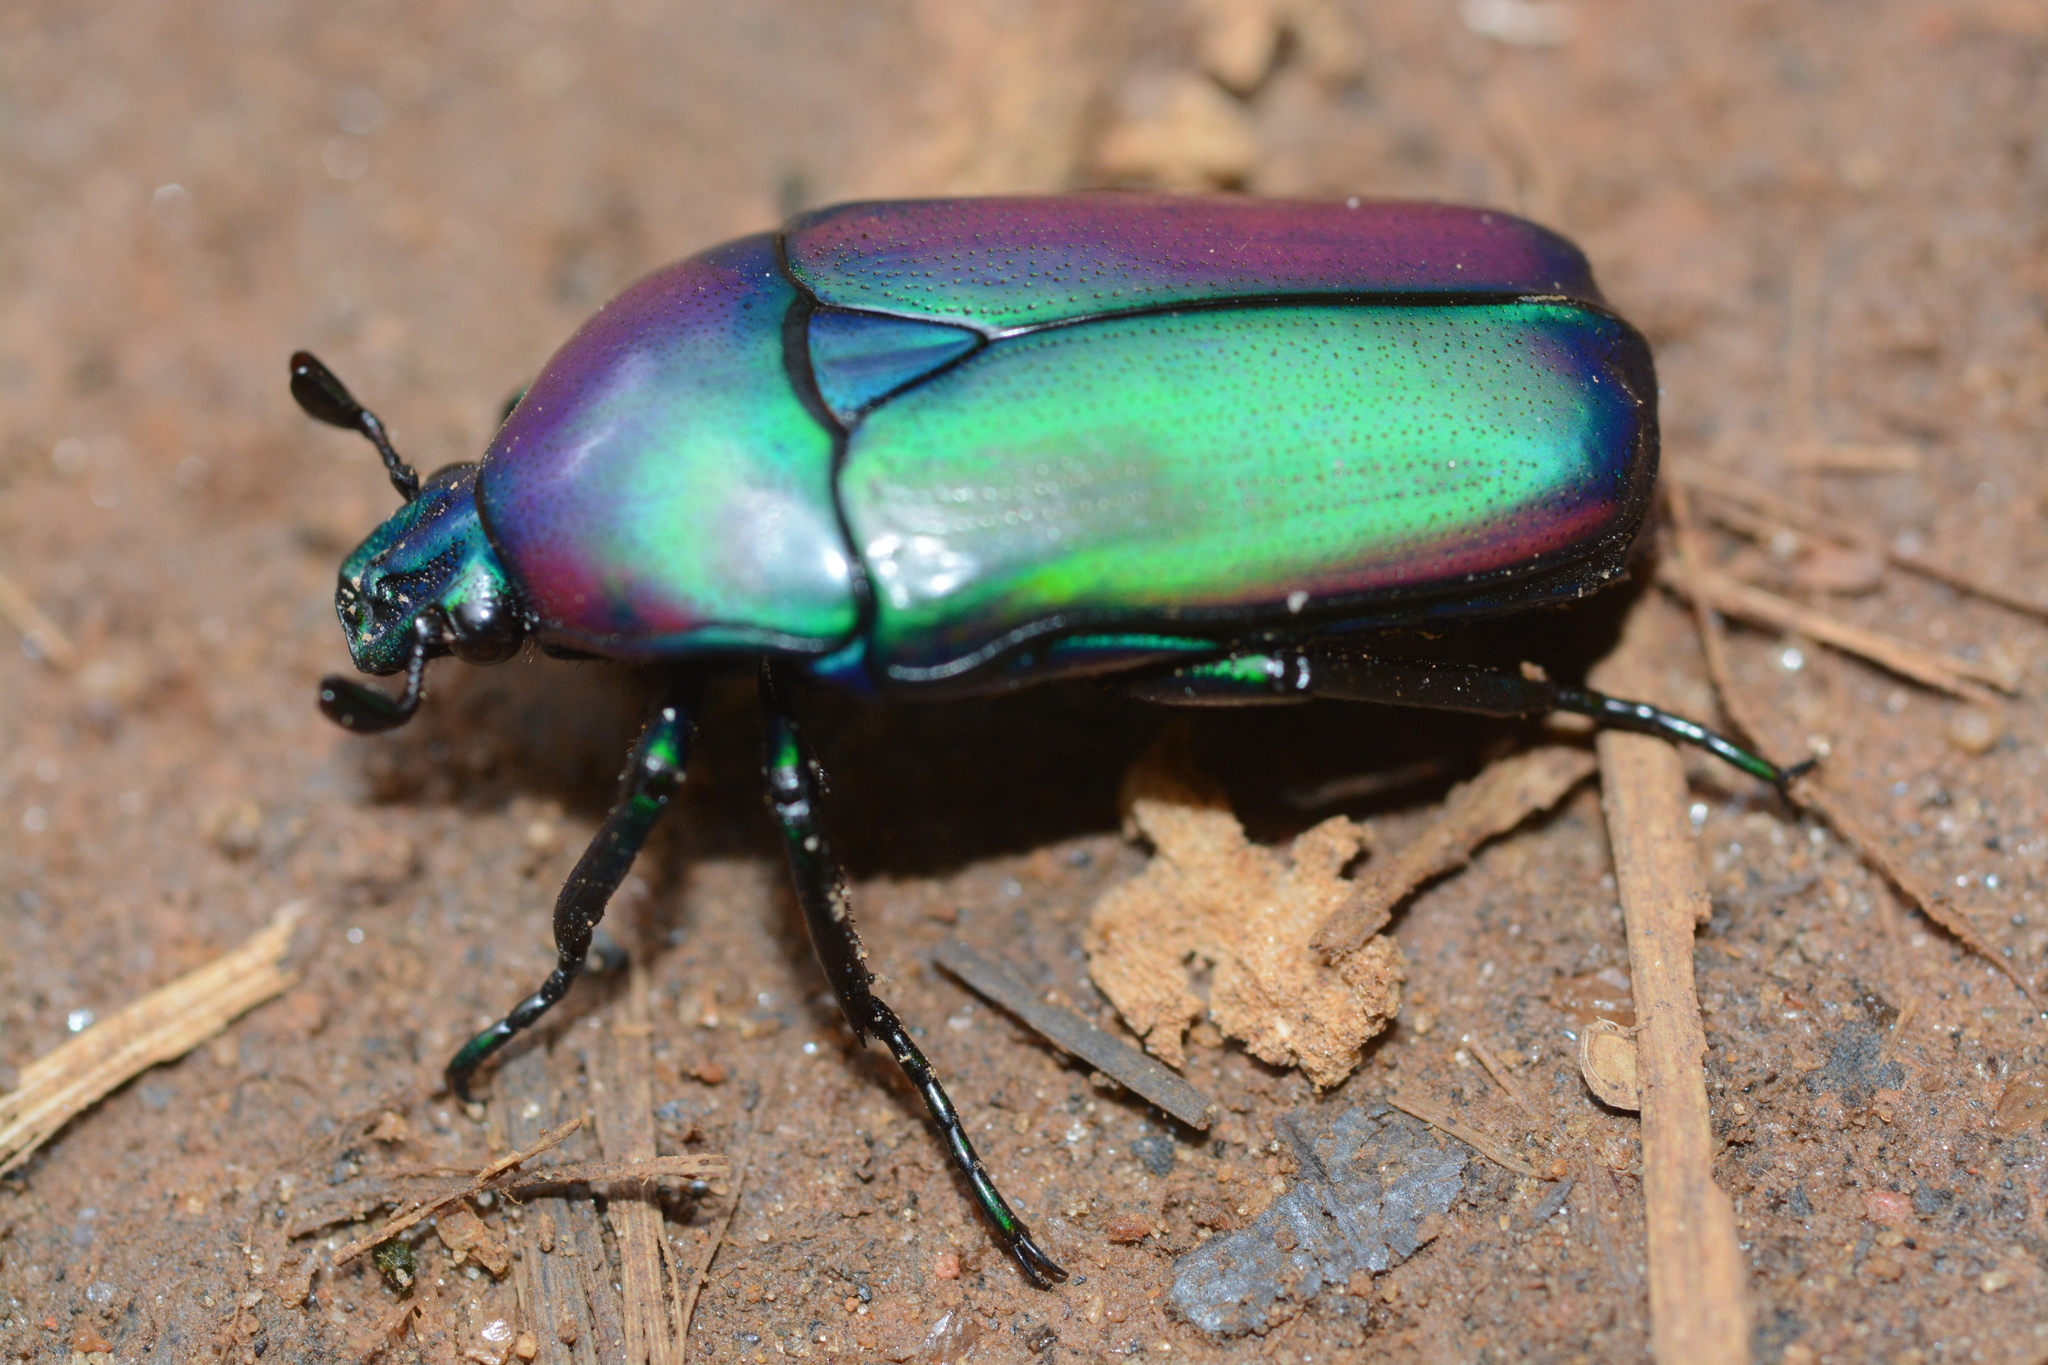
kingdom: Animalia
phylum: Arthropoda
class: Insecta
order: Coleoptera
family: Scarabaeidae
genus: Chlorocala
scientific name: Chlorocala africana
